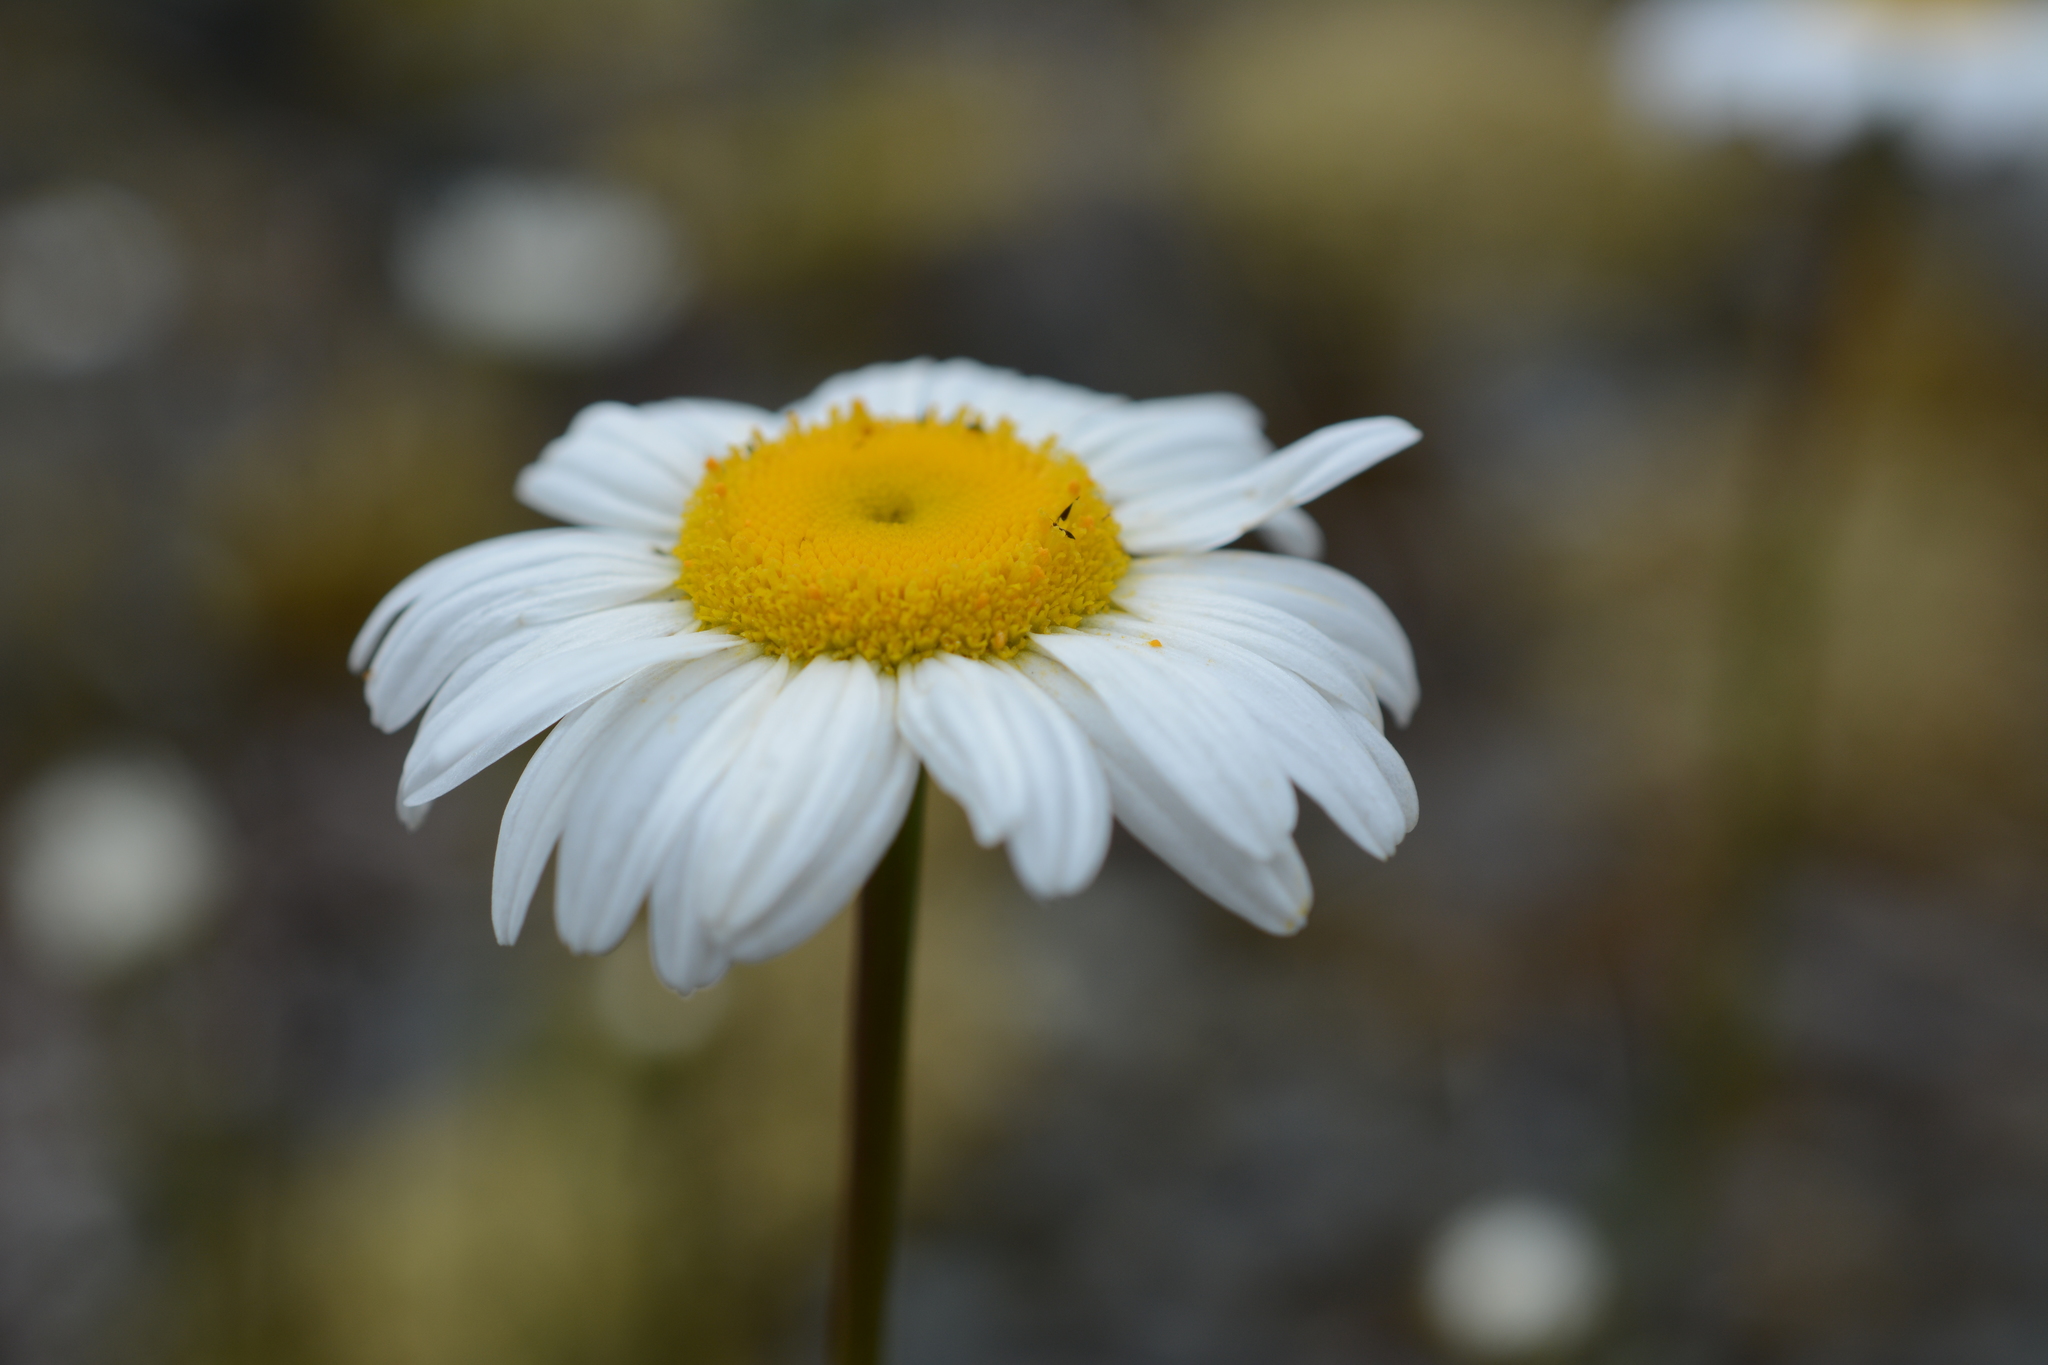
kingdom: Plantae
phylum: Tracheophyta
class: Magnoliopsida
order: Asterales
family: Asteraceae
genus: Leucanthemum
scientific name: Leucanthemum vulgare
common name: Oxeye daisy
